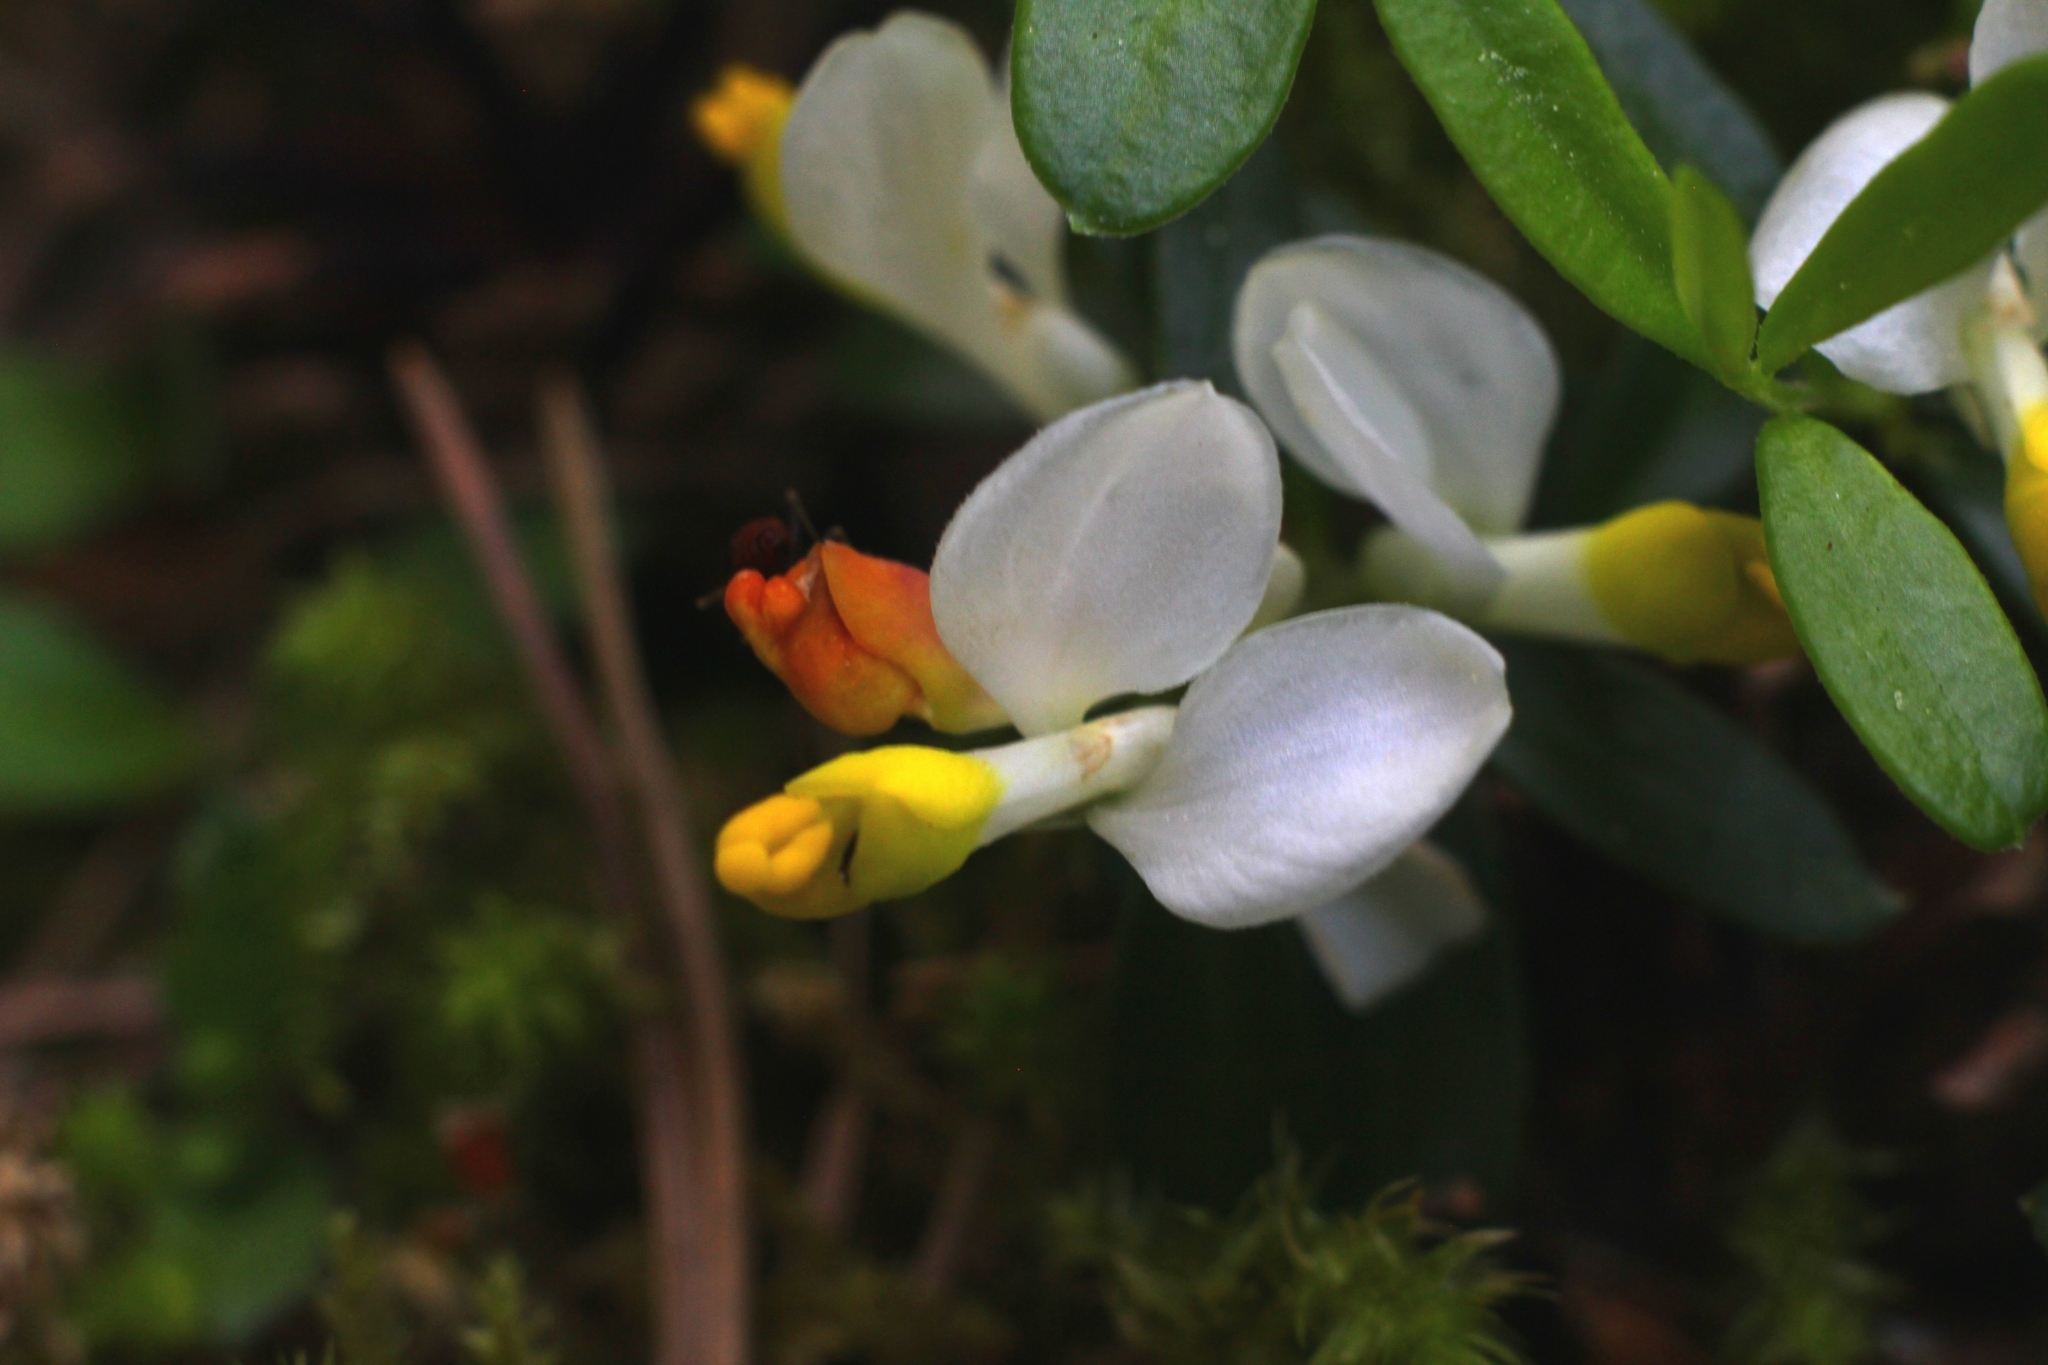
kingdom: Plantae
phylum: Tracheophyta
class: Magnoliopsida
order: Fabales
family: Polygalaceae
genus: Polygaloides
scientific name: Polygaloides chamaebuxus
